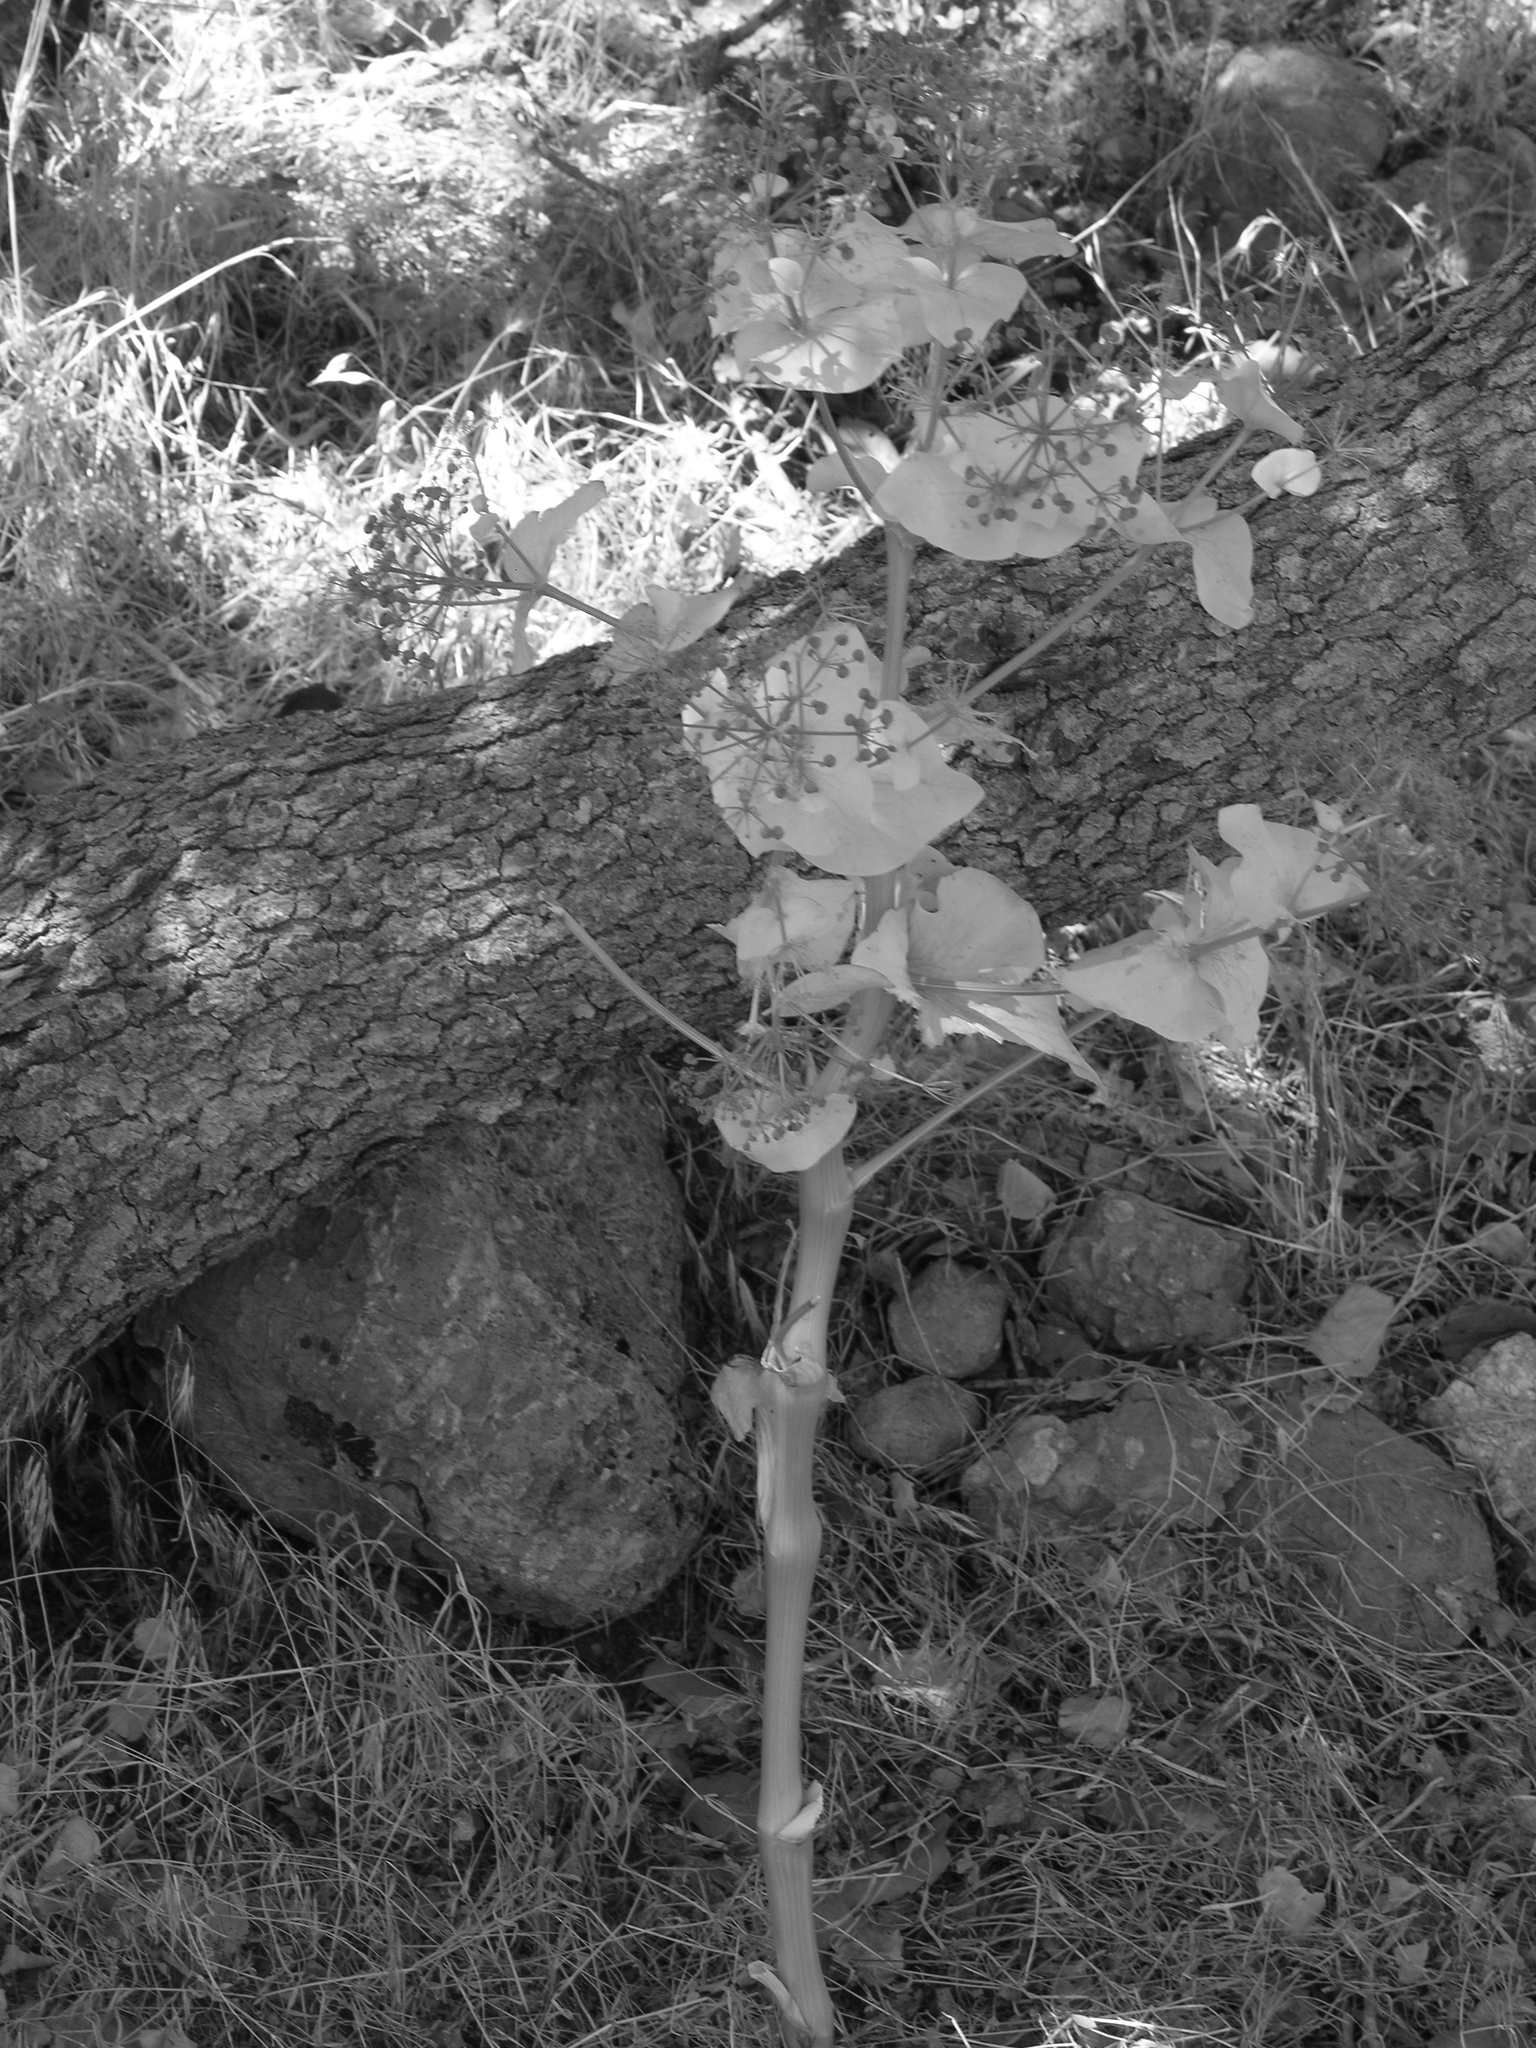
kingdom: Plantae
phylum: Tracheophyta
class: Magnoliopsida
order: Apiales
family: Apiaceae
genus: Smyrnium
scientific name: Smyrnium cordifolium
